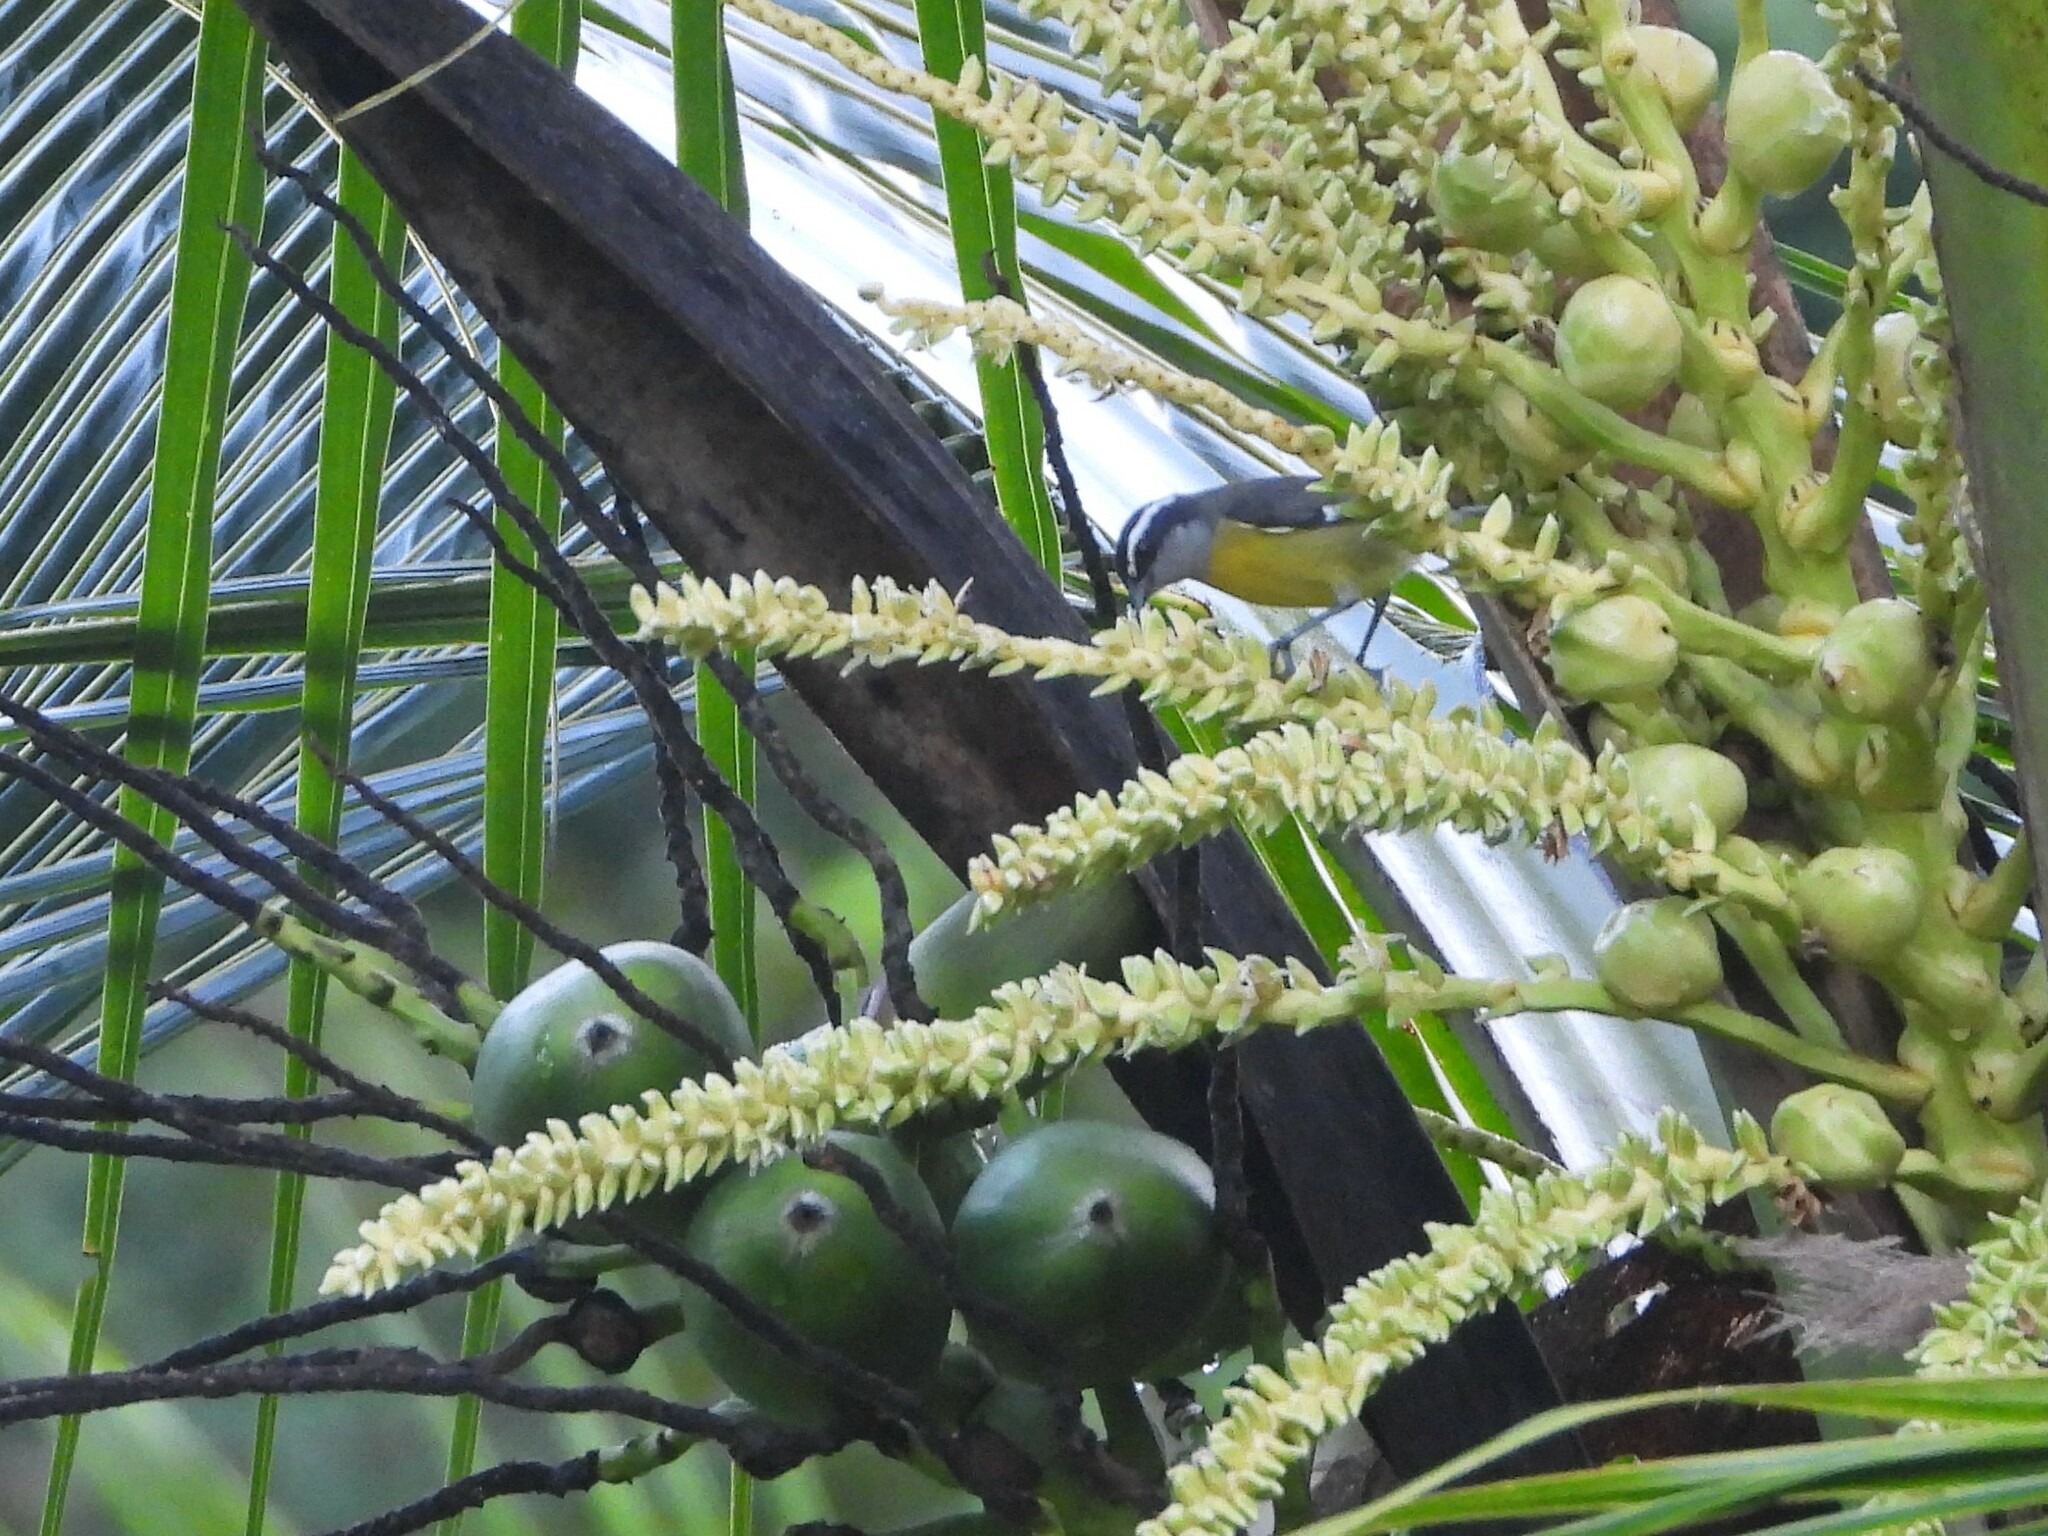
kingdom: Animalia
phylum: Chordata
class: Aves
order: Passeriformes
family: Thraupidae
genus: Coereba
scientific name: Coereba flaveola
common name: Bananaquit
